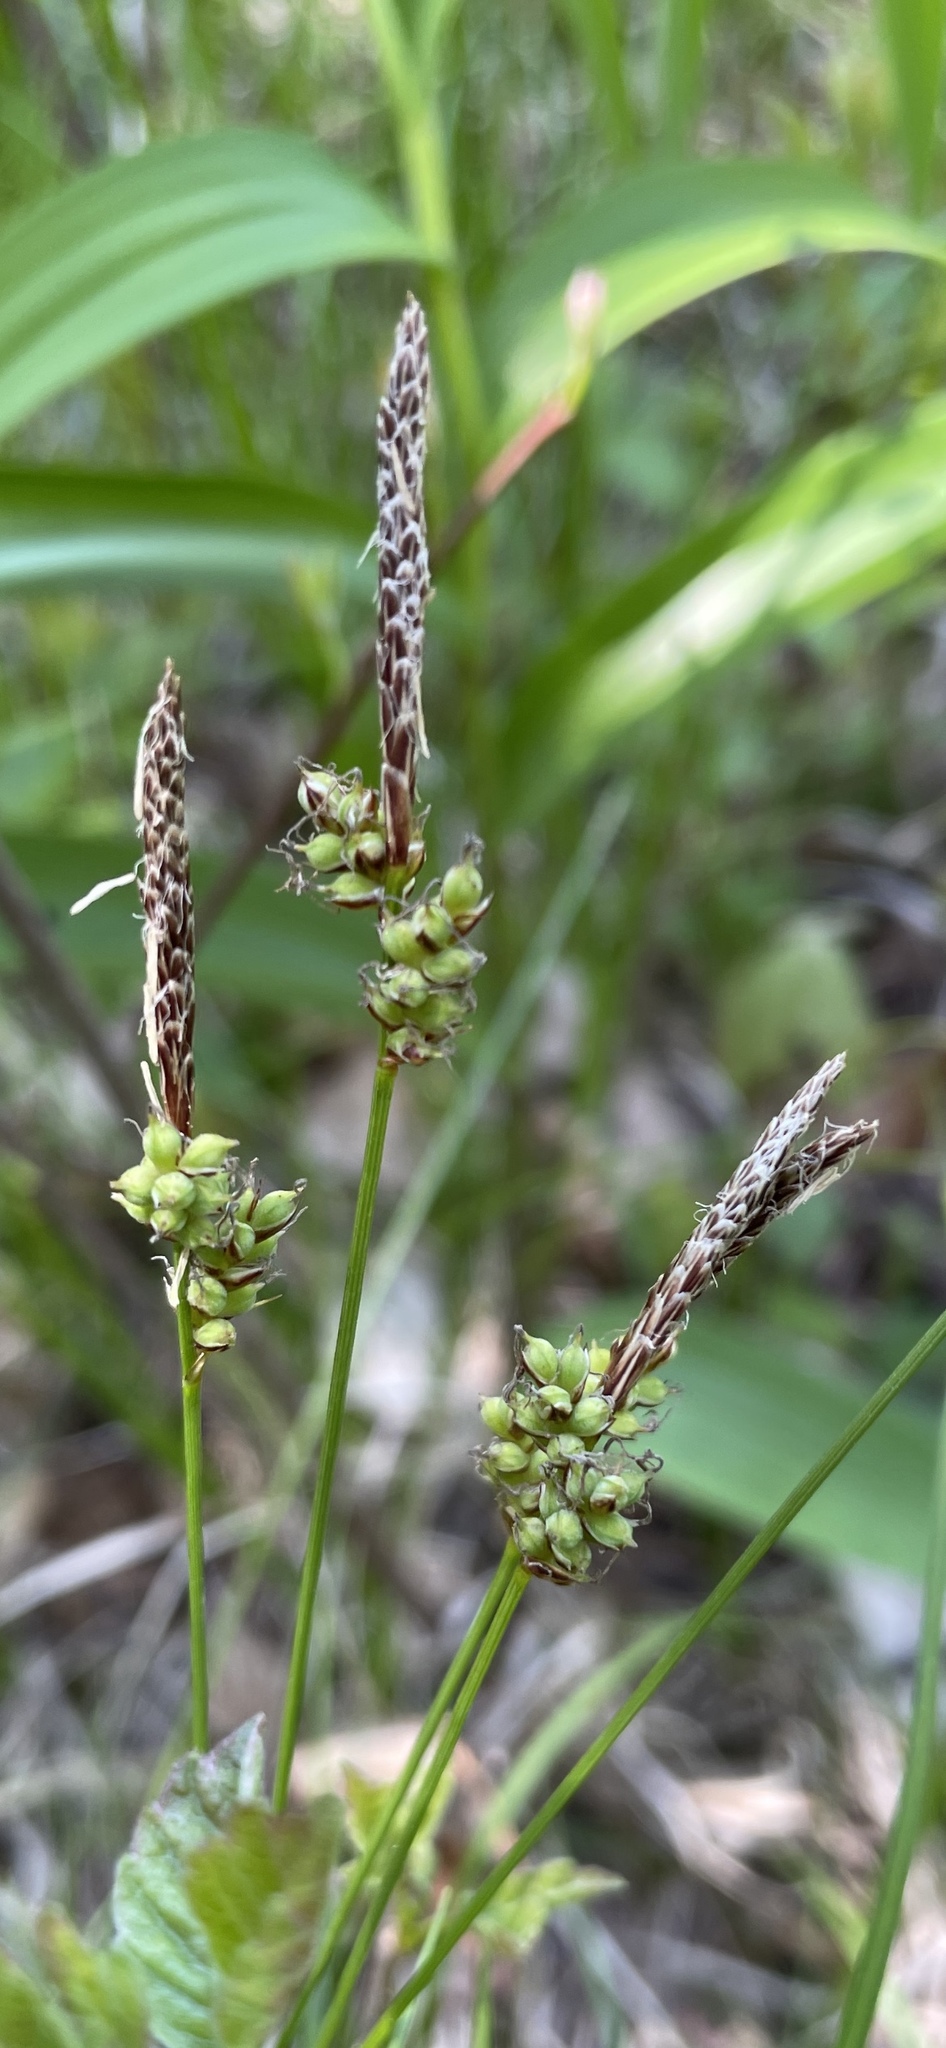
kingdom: Plantae
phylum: Tracheophyta
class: Liliopsida
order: Poales
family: Cyperaceae
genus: Carex
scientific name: Carex pensylvanica
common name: Common oak sedge
